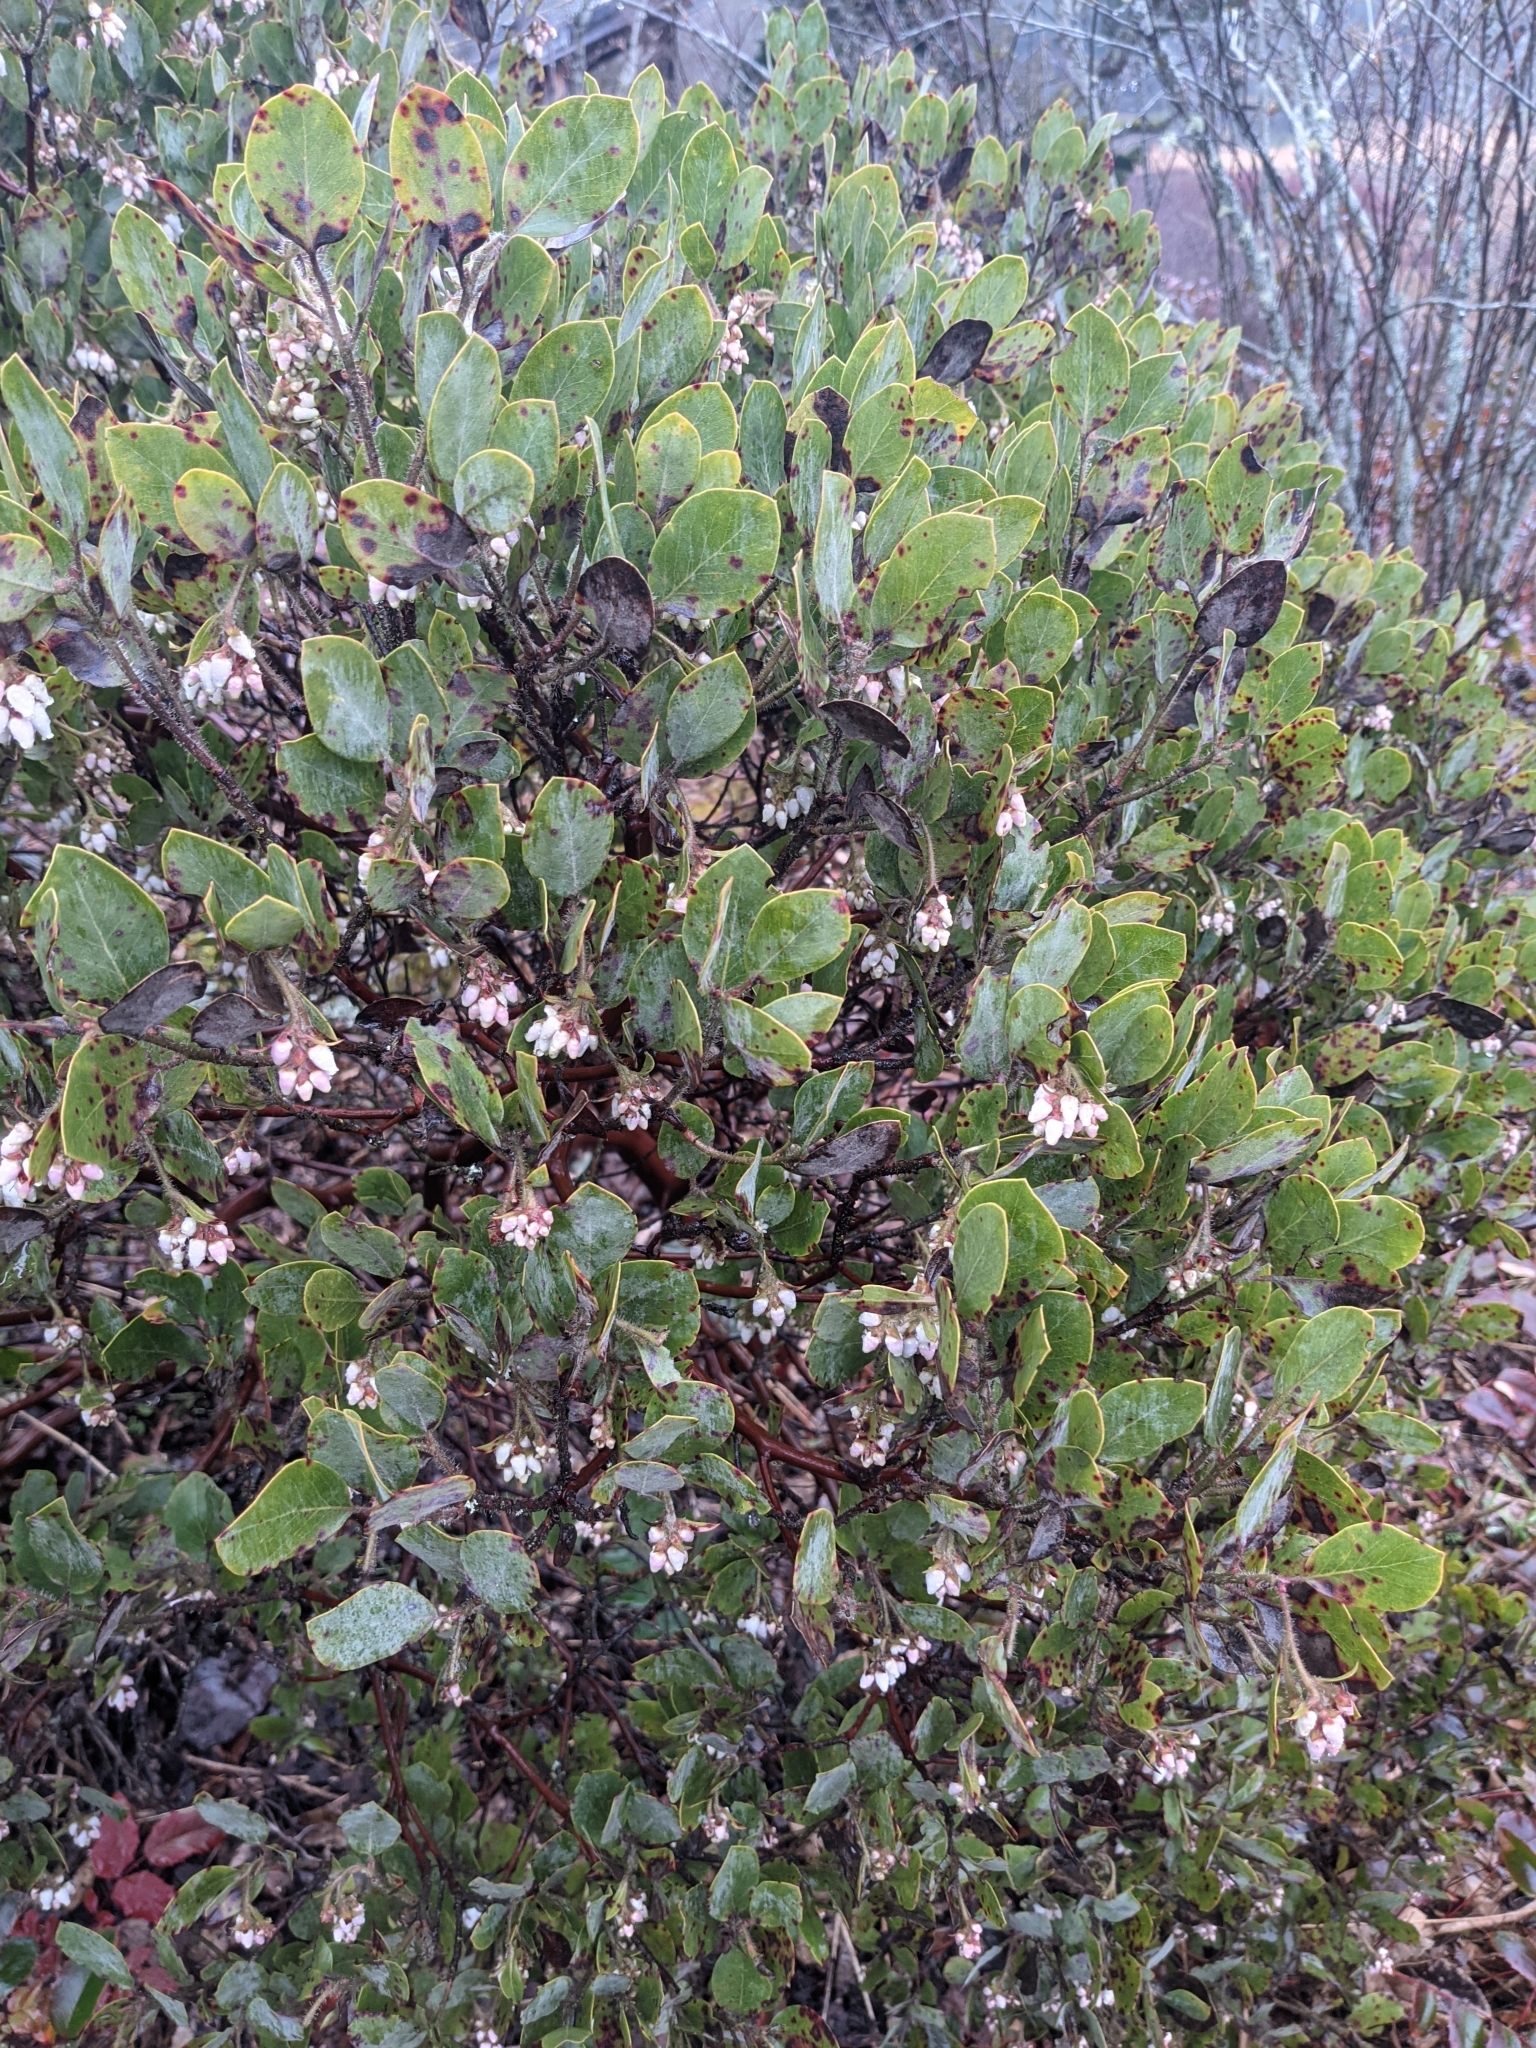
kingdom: Plantae
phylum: Tracheophyta
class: Magnoliopsida
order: Ericales
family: Ericaceae
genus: Arctostaphylos
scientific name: Arctostaphylos columbiana
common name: Bristly bearberry
